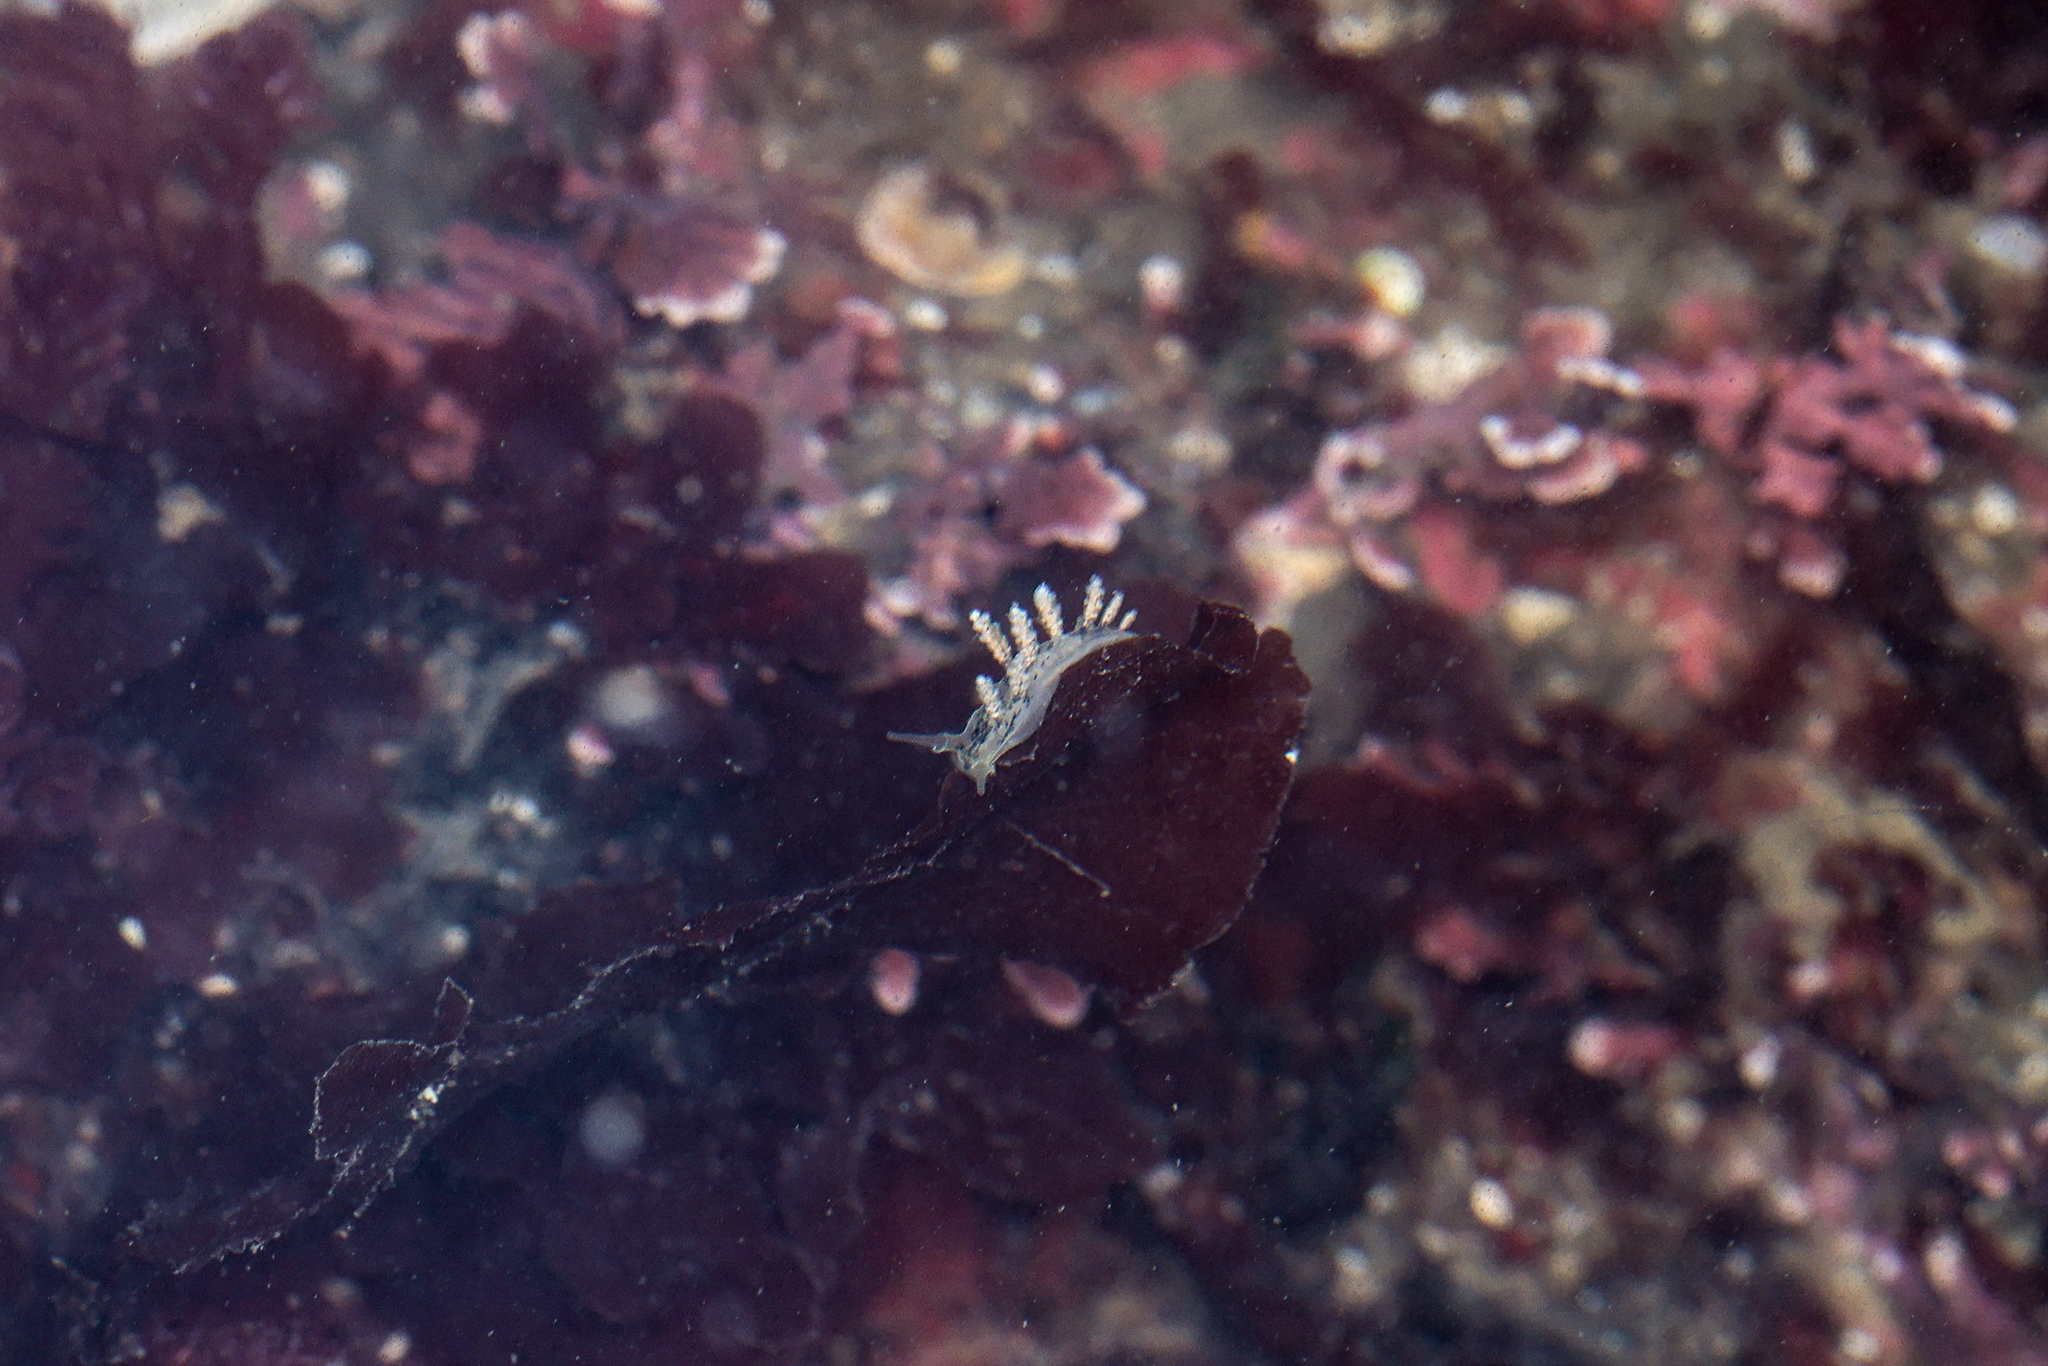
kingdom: Animalia
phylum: Mollusca
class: Gastropoda
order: Nudibranchia
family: Dotidae
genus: Doto
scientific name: Doto kya
